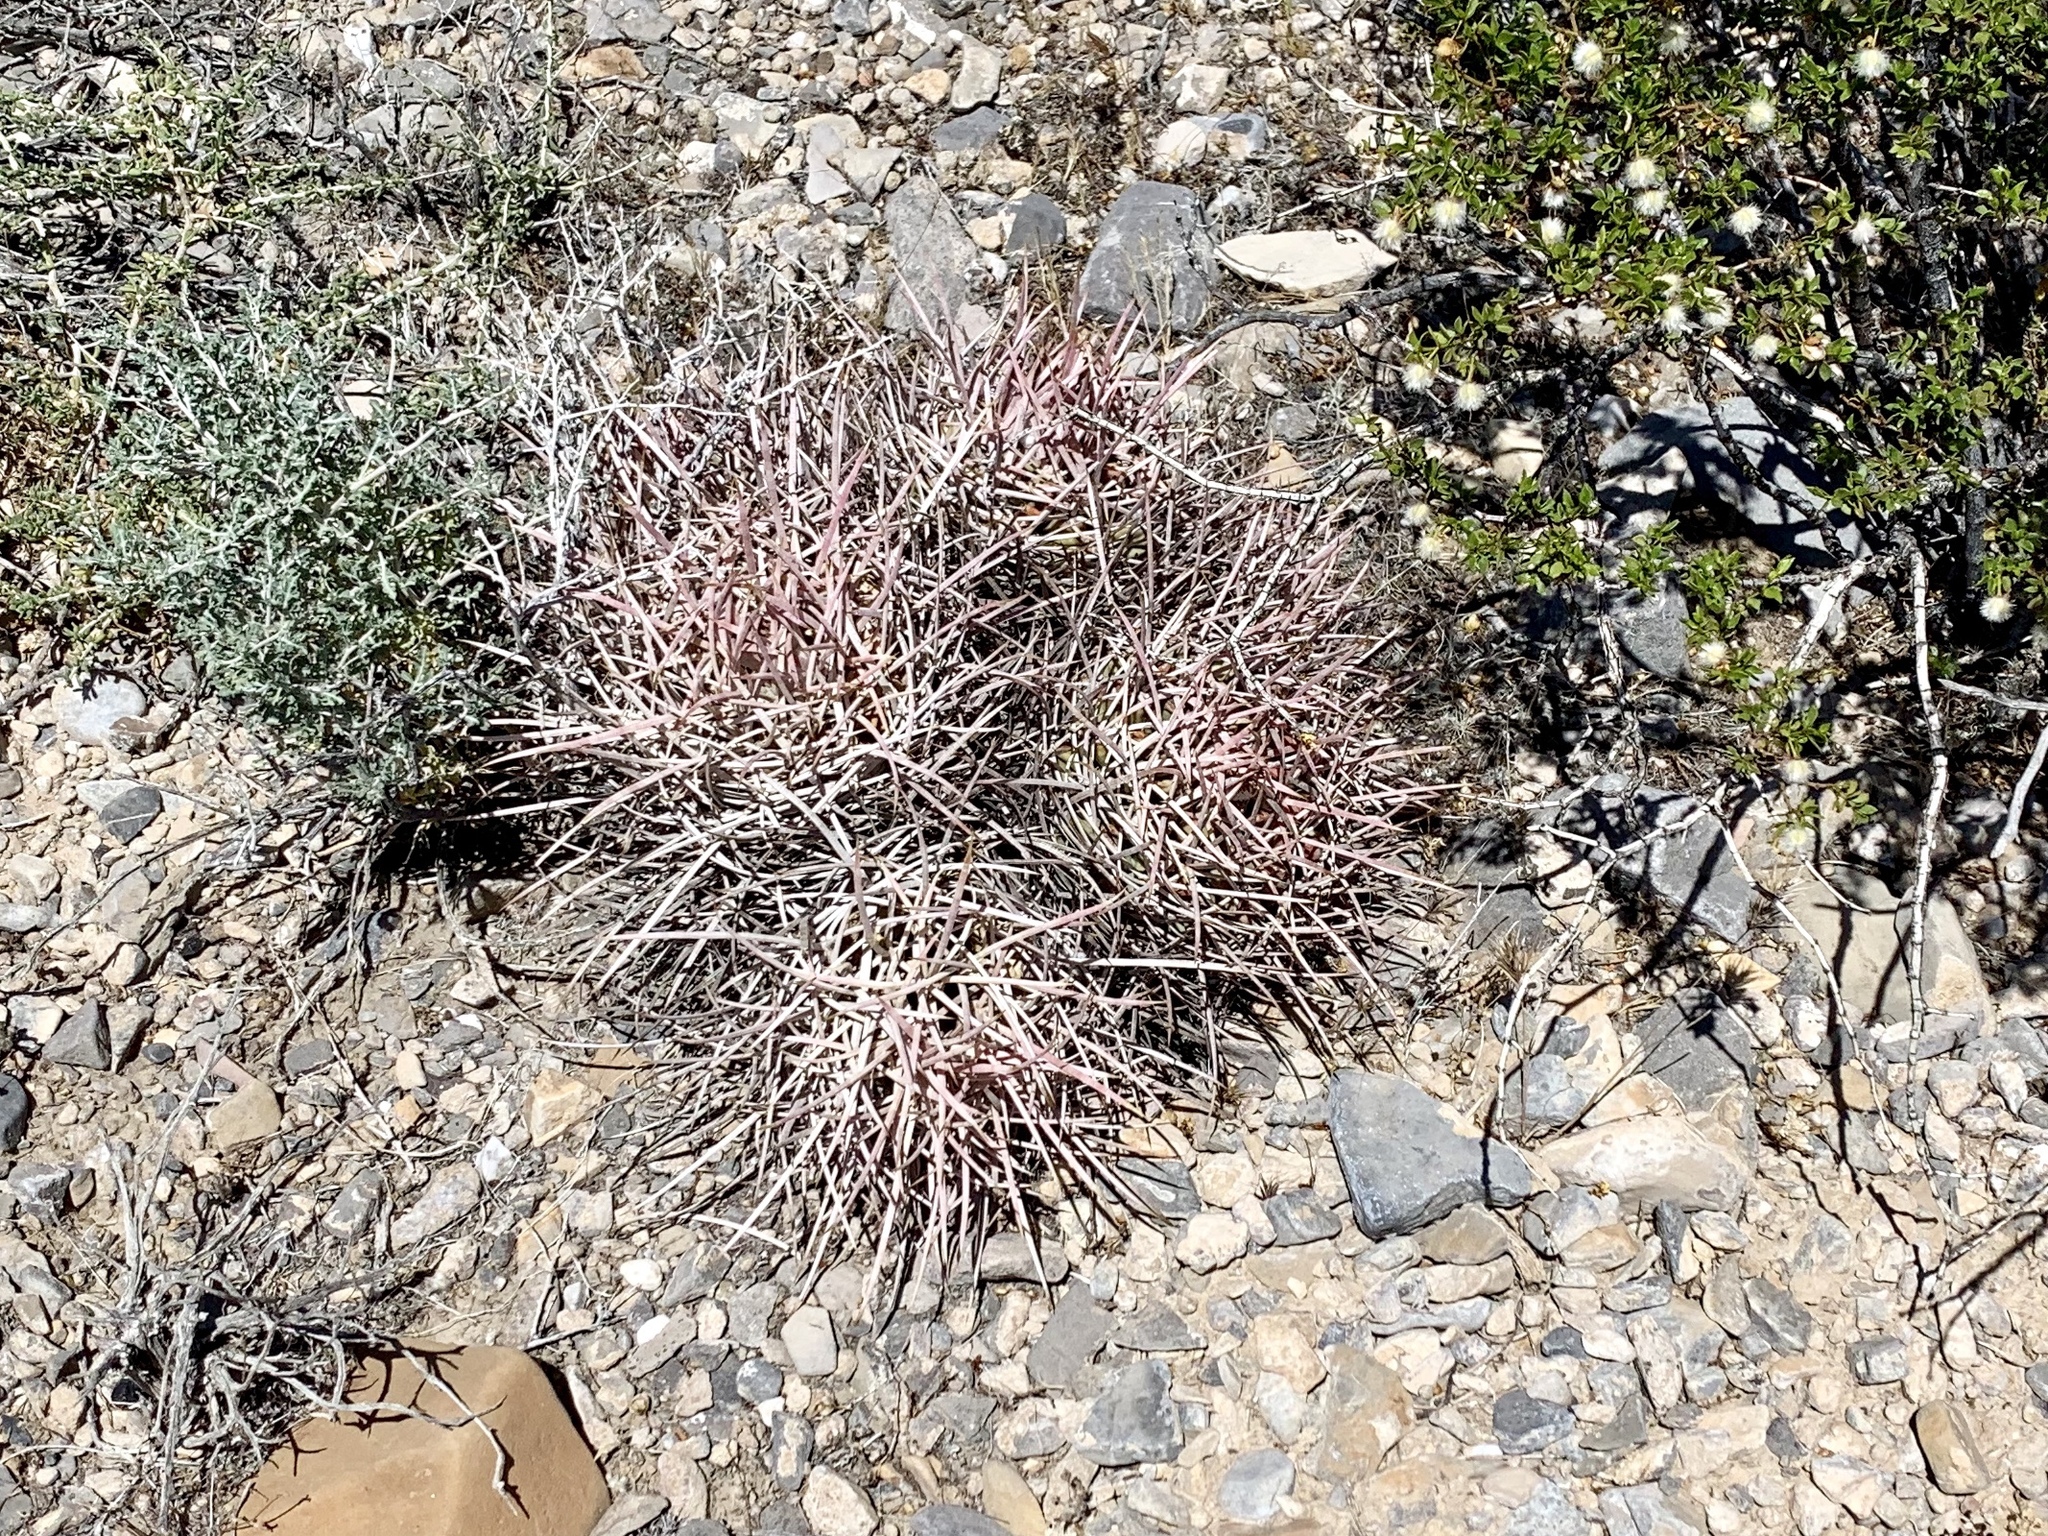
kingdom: Plantae
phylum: Tracheophyta
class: Magnoliopsida
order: Caryophyllales
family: Cactaceae
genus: Echinocactus
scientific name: Echinocactus polycephalus
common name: Cottontop cactus
